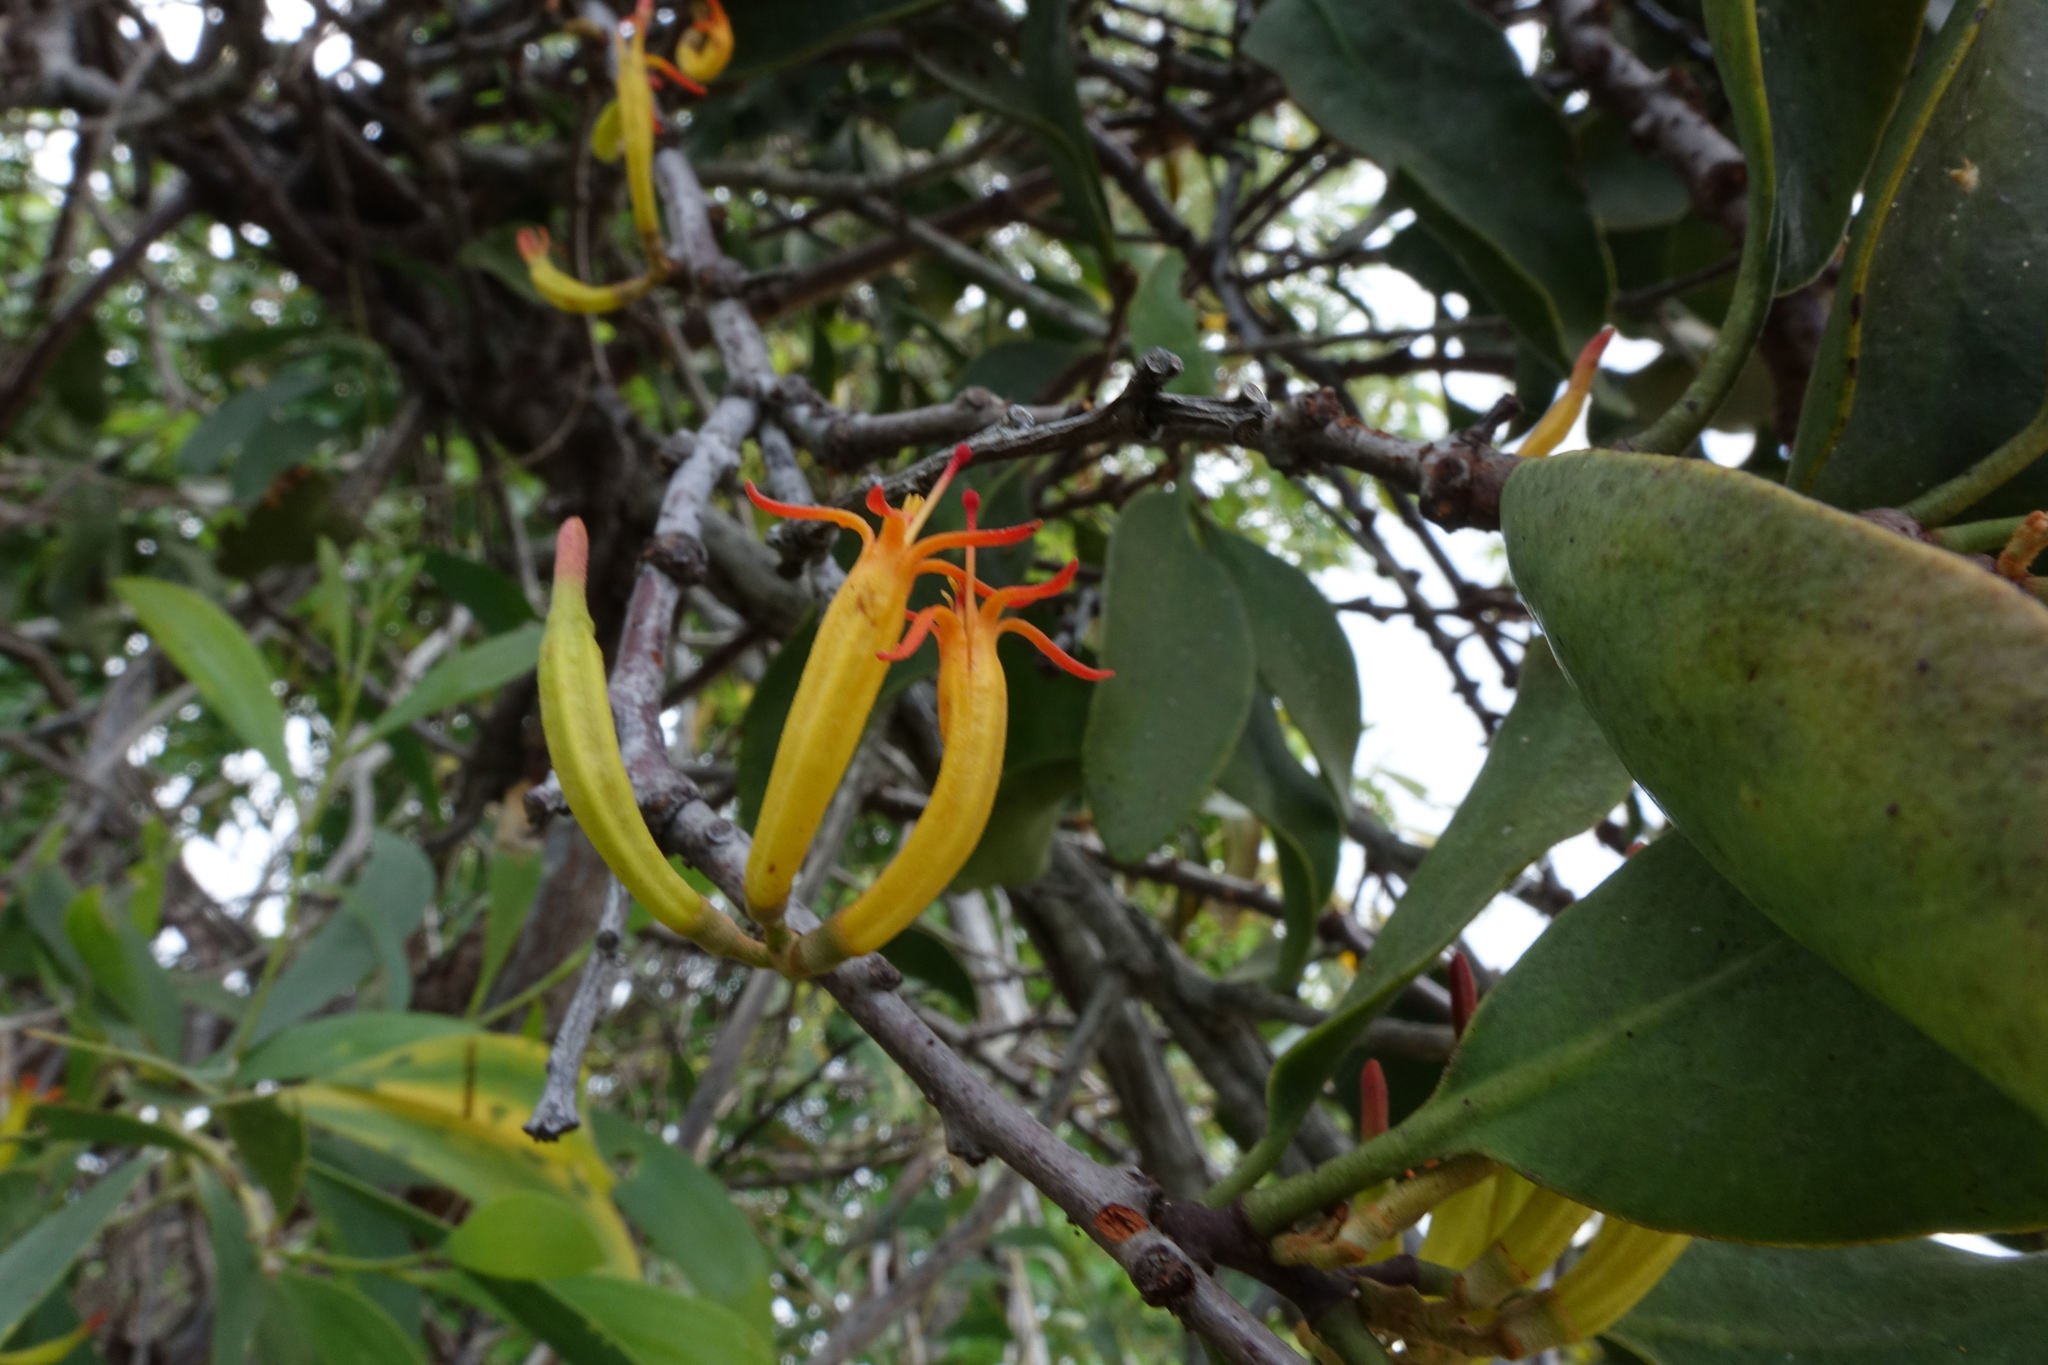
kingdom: Plantae
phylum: Tracheophyta
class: Magnoliopsida
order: Santalales
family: Loranthaceae
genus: Dendrophthoe
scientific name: Dendrophthoe vitellina
